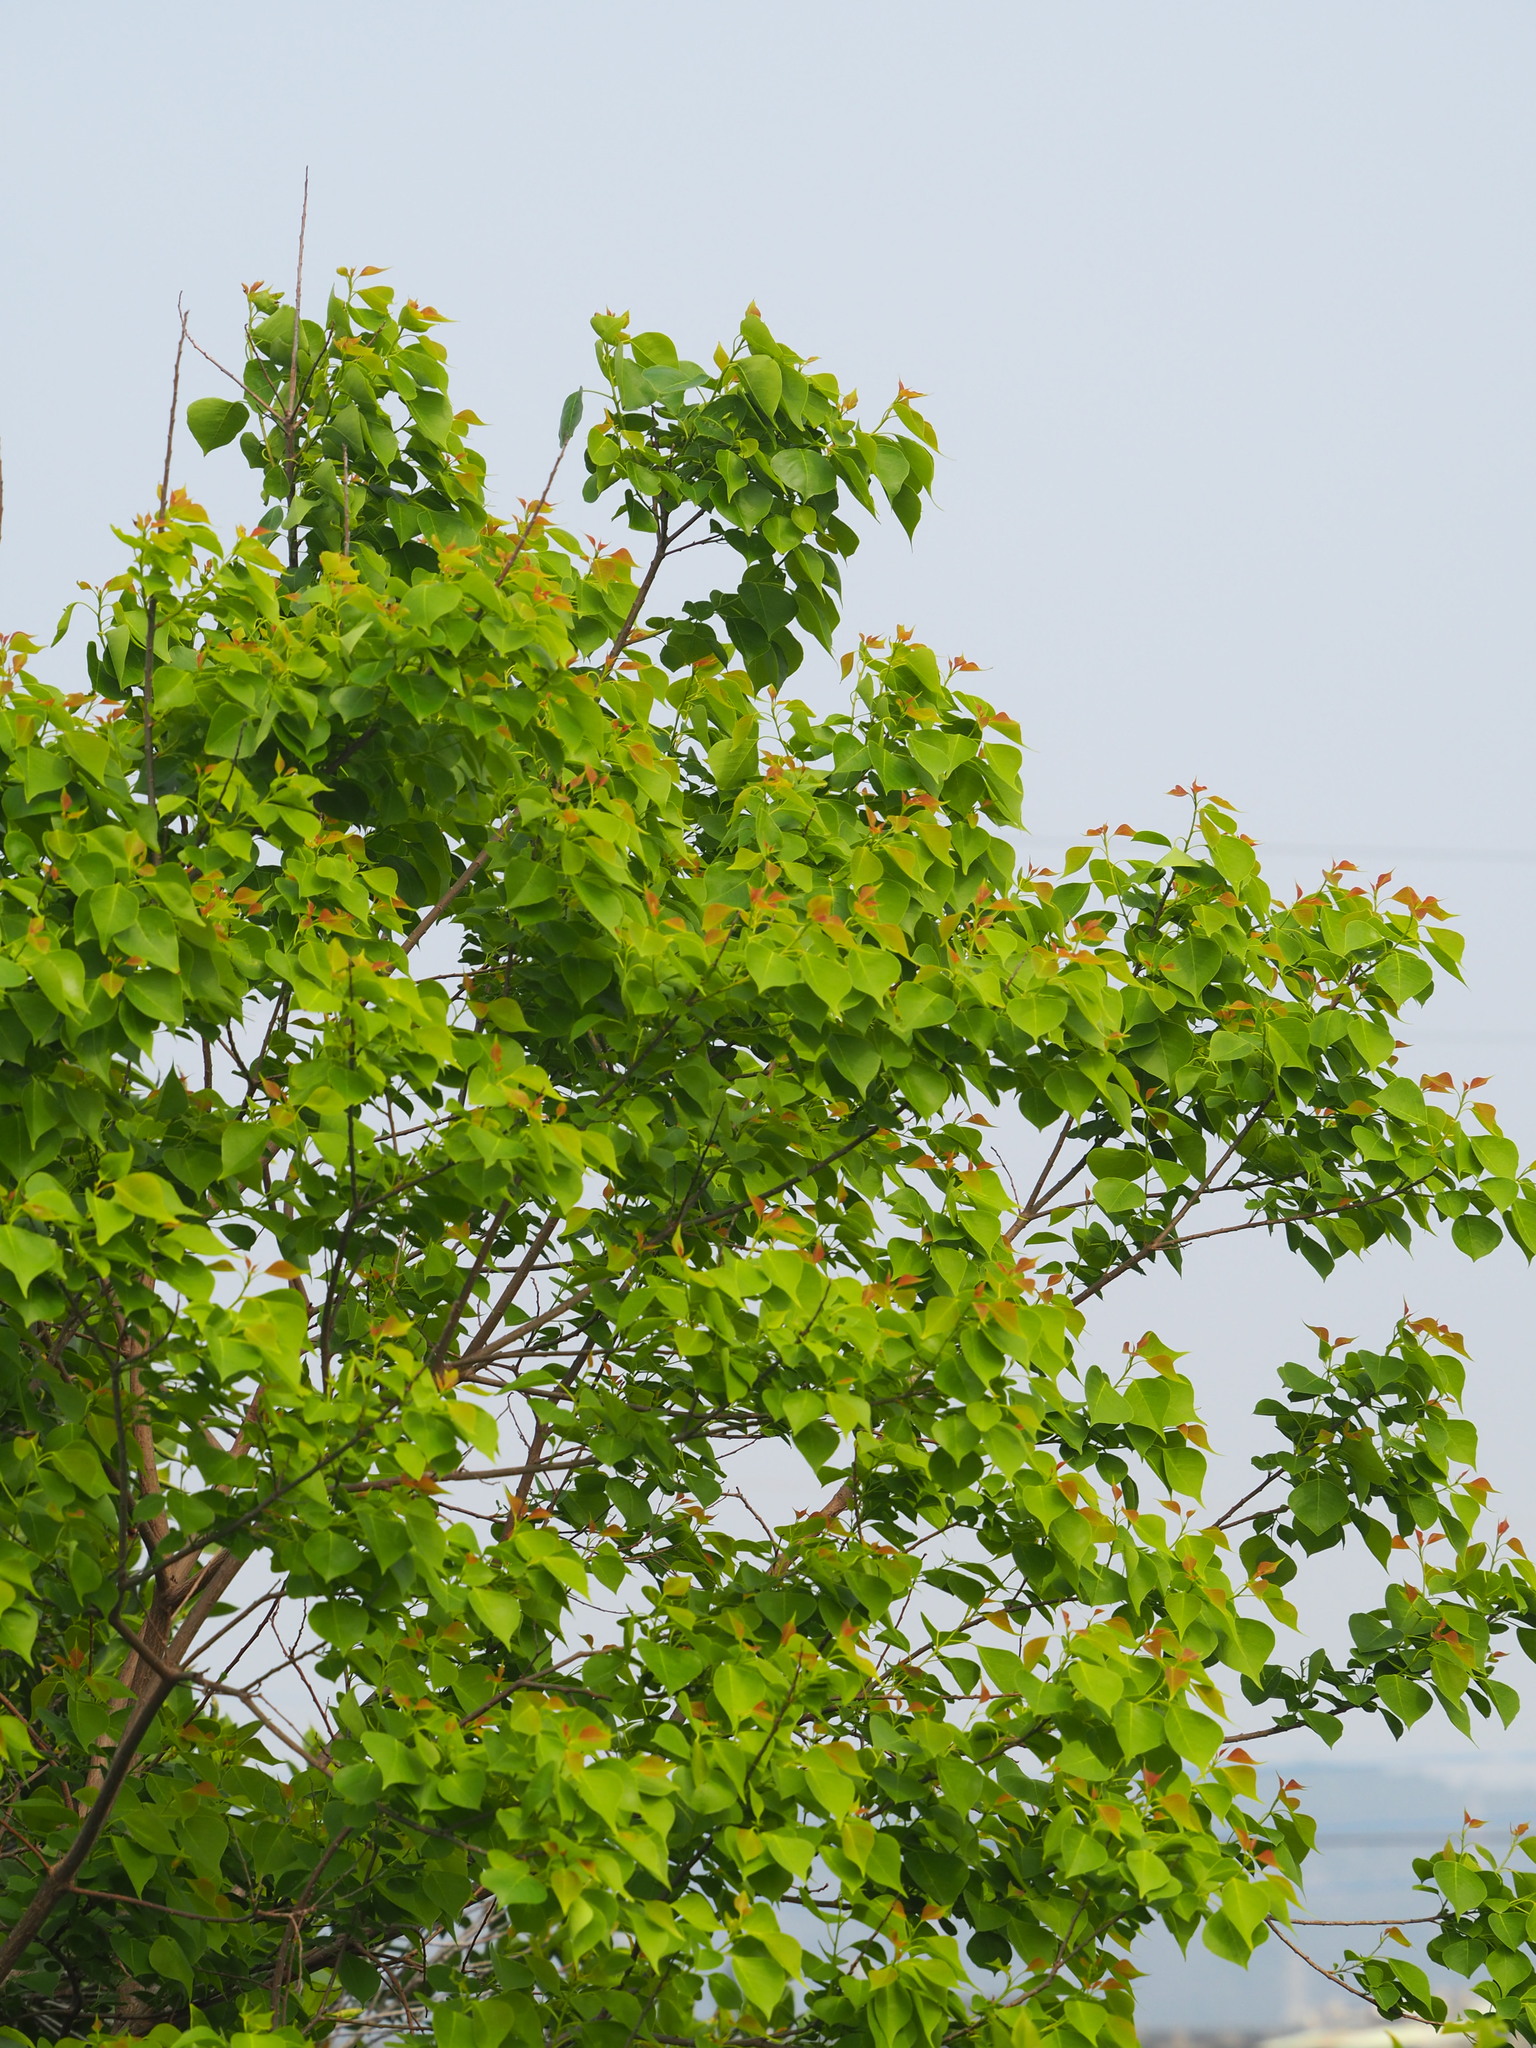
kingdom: Plantae
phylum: Tracheophyta
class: Magnoliopsida
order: Malpighiales
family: Euphorbiaceae
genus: Triadica
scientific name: Triadica sebifera
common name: Chinese tallow
